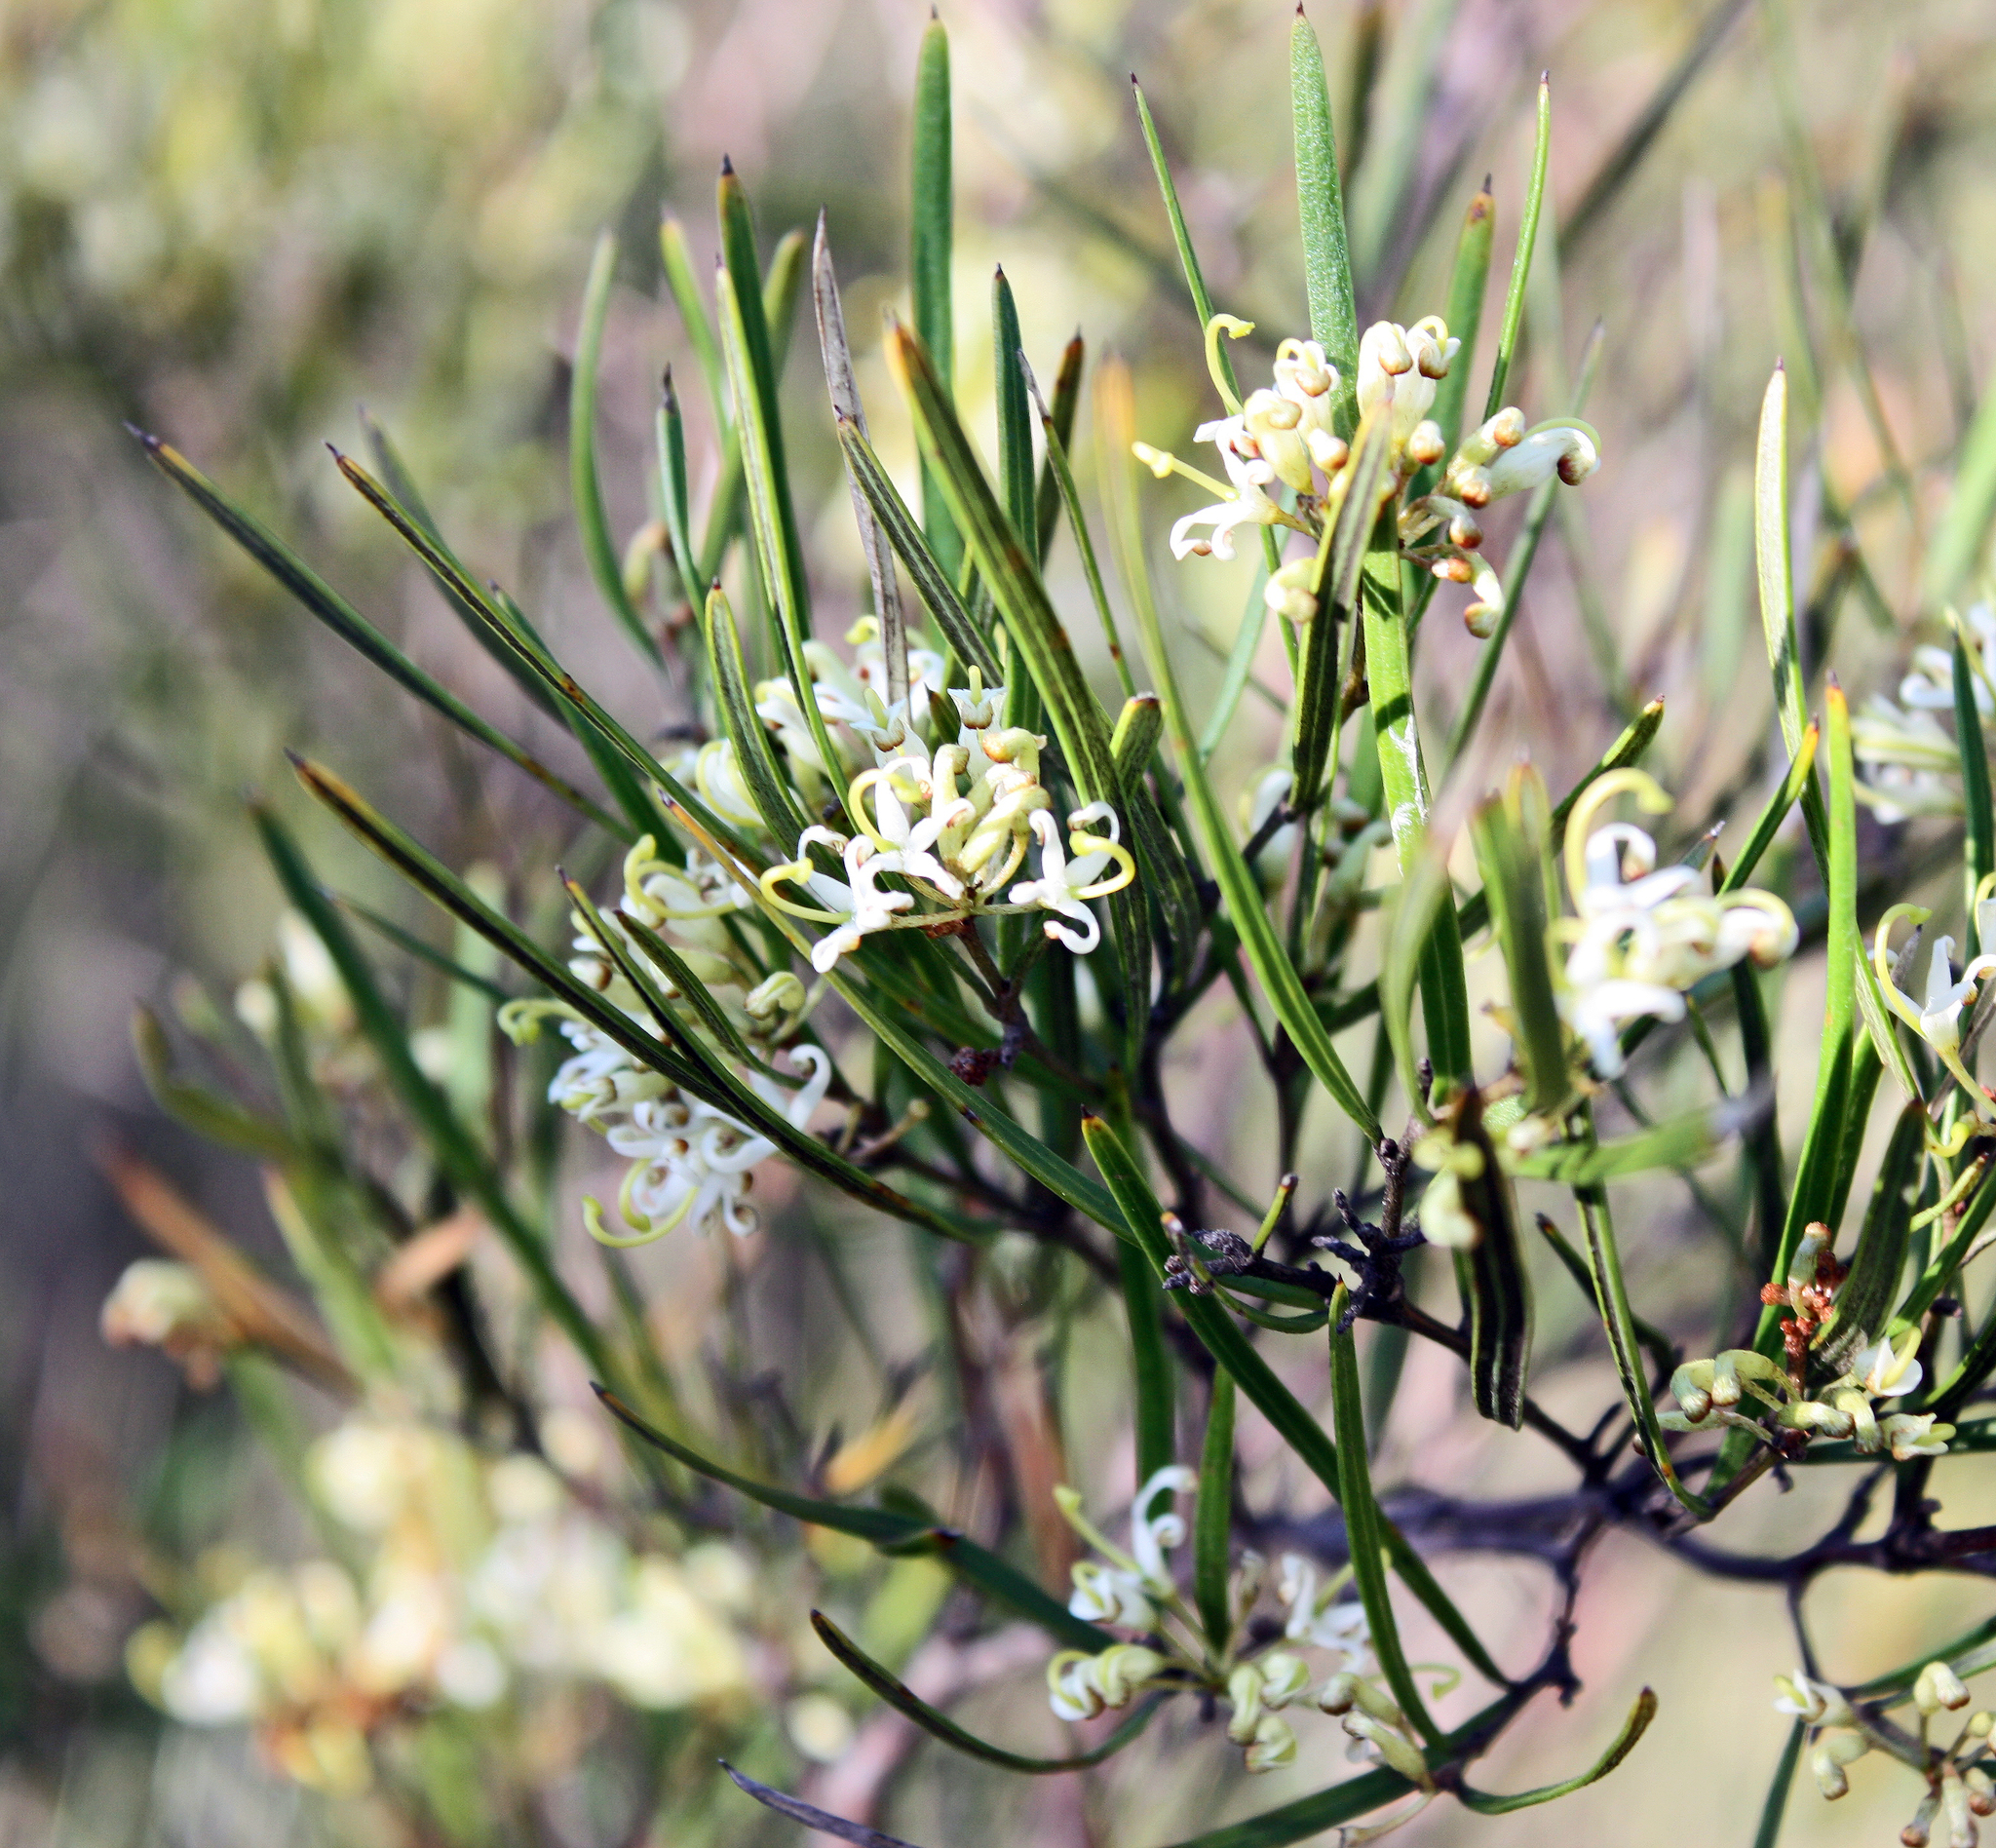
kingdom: Plantae
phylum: Tracheophyta
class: Magnoliopsida
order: Proteales
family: Proteaceae
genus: Grevillea
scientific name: Grevillea viridiflava
